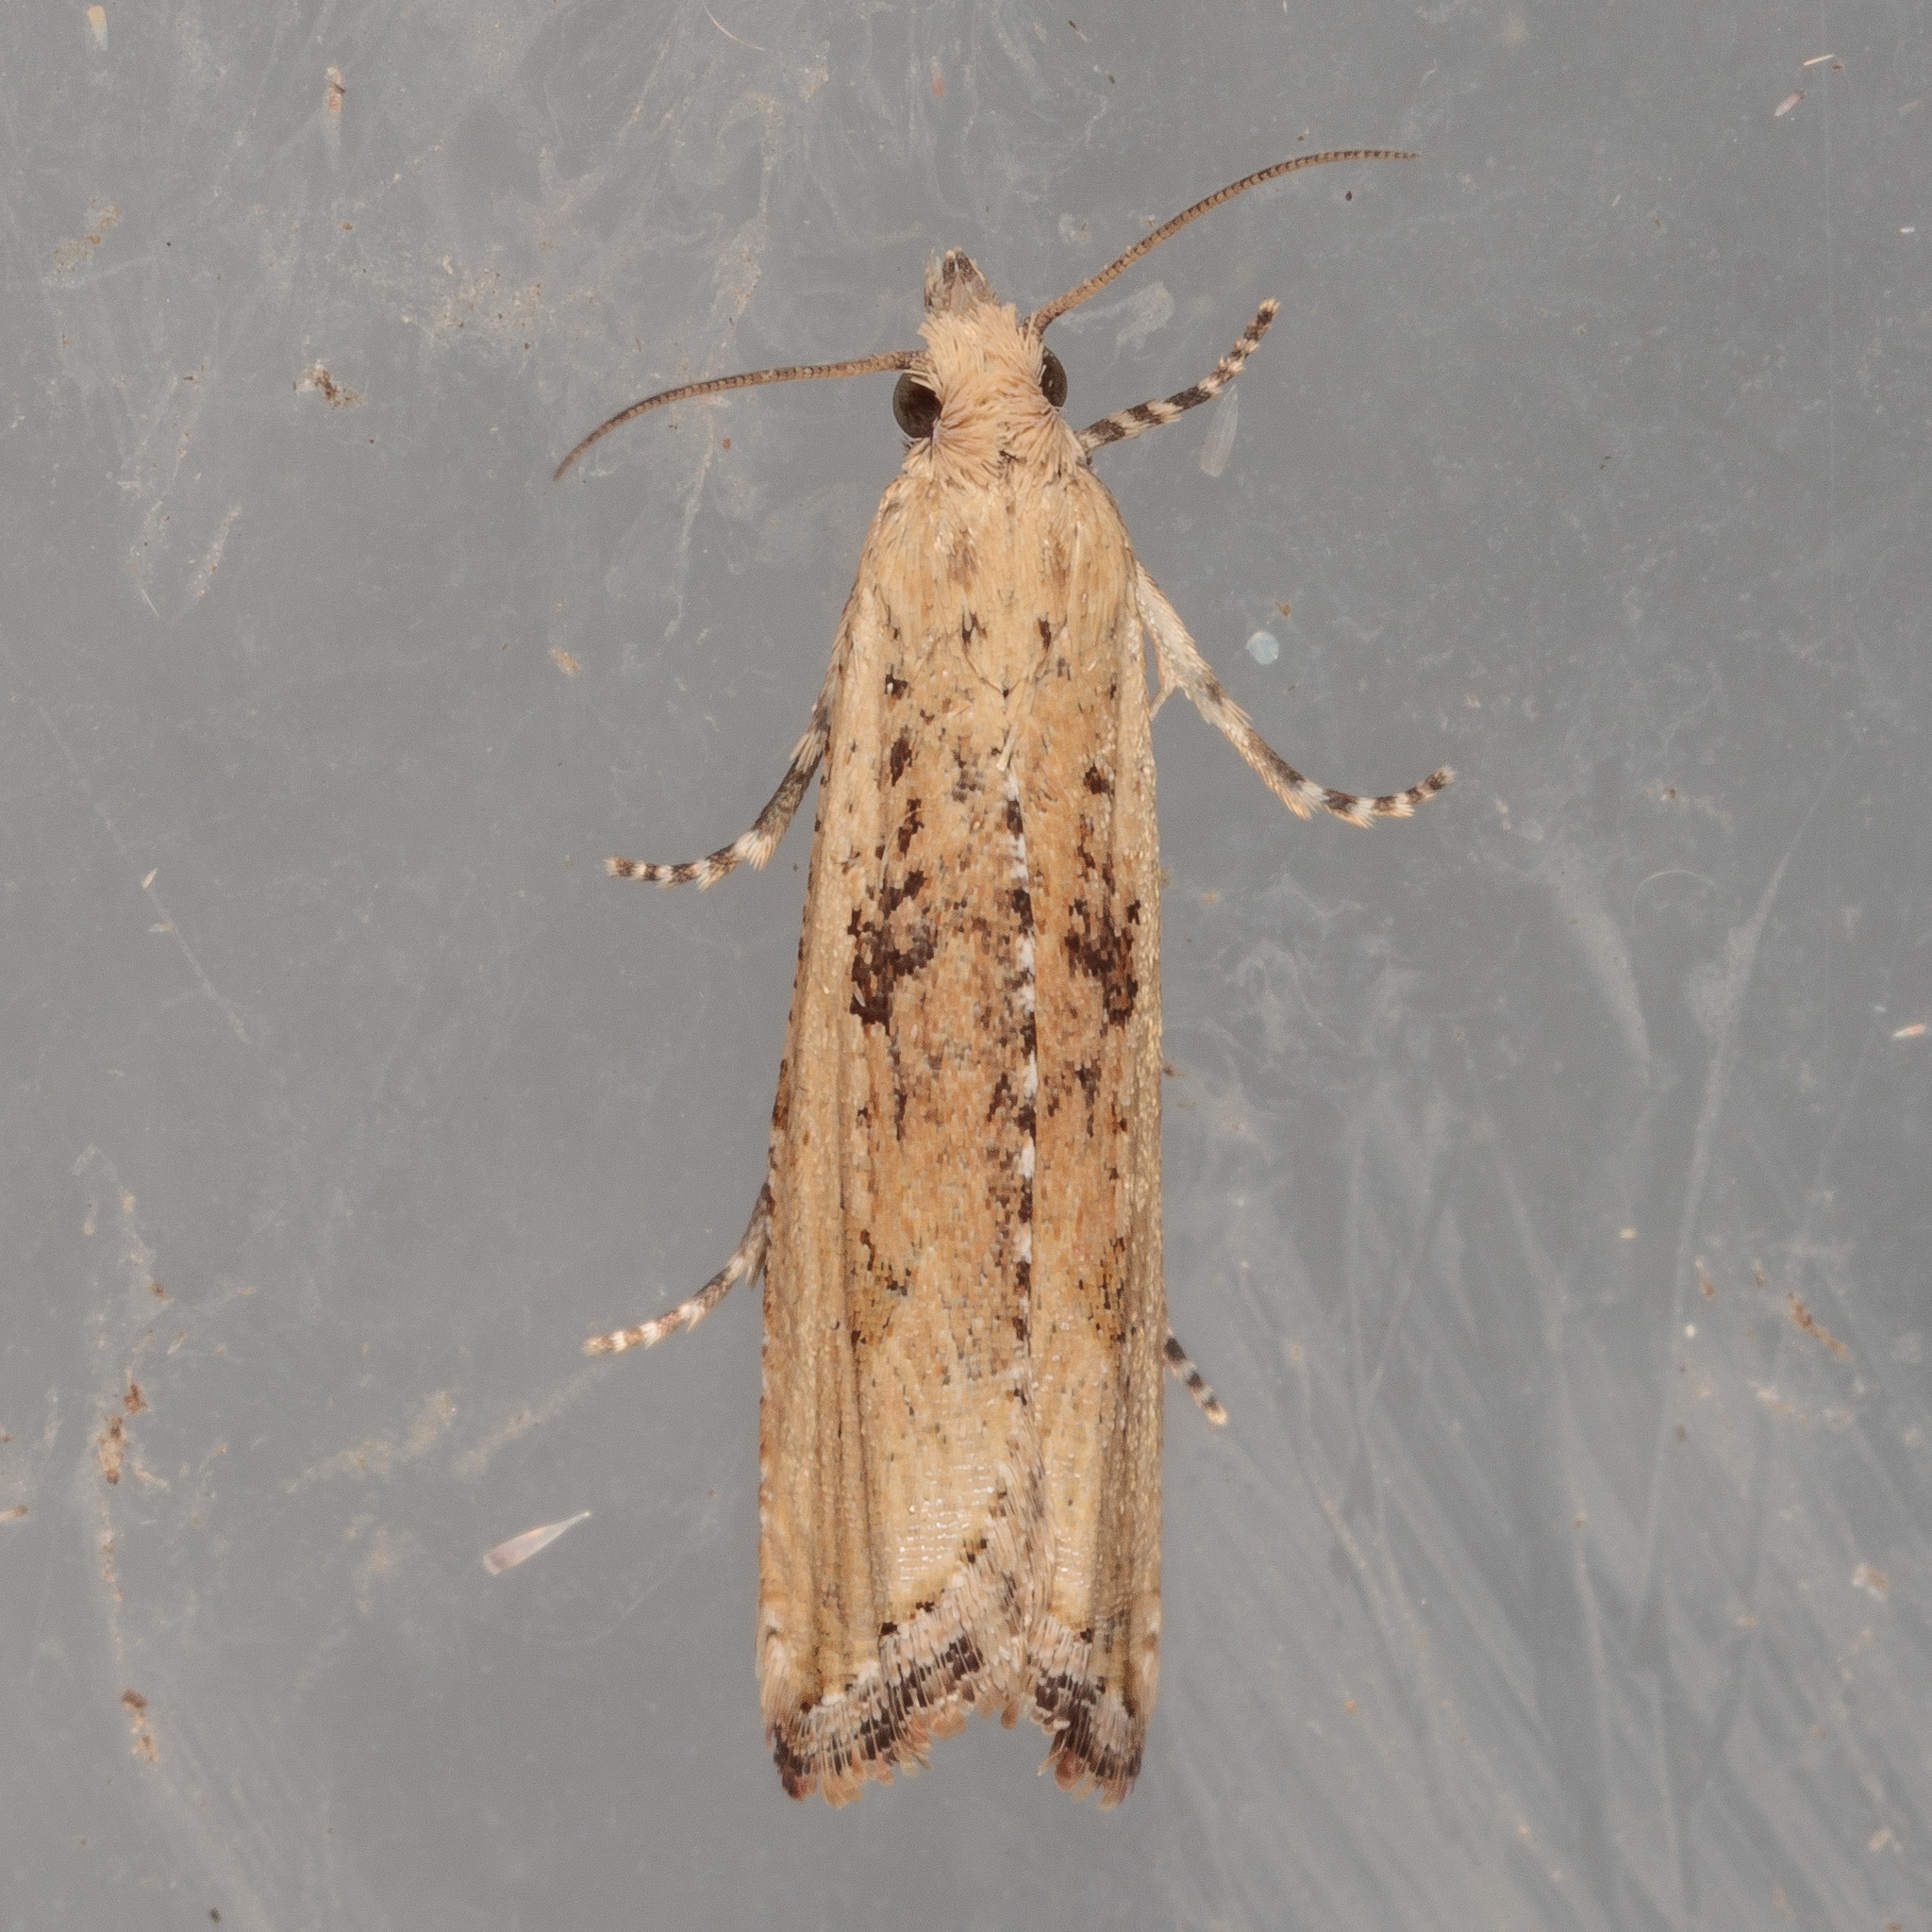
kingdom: Animalia
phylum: Arthropoda
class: Insecta
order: Lepidoptera
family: Tortricidae
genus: Bactra
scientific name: Bactra verutana
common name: Javelin moth
